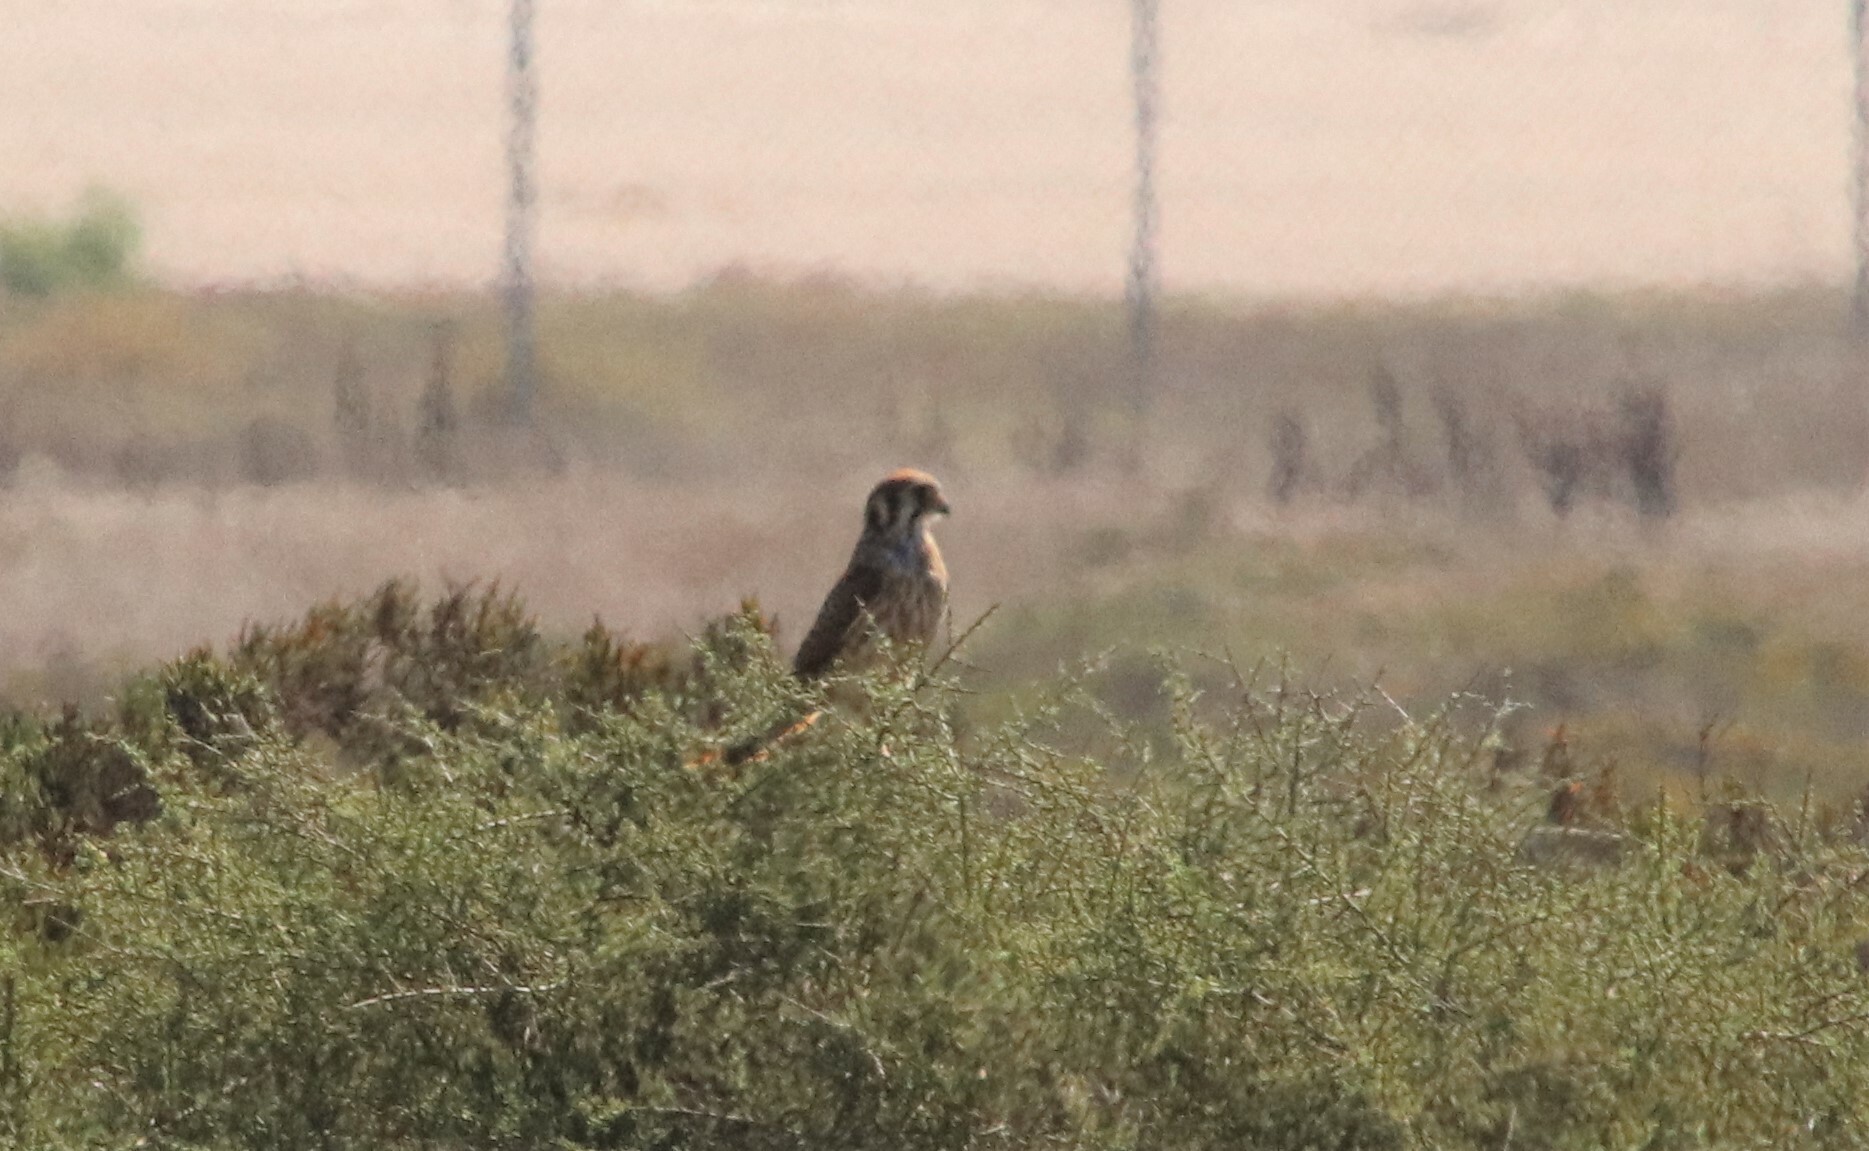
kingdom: Animalia
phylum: Chordata
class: Aves
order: Falconiformes
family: Falconidae
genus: Falco
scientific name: Falco sparverius
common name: American kestrel
